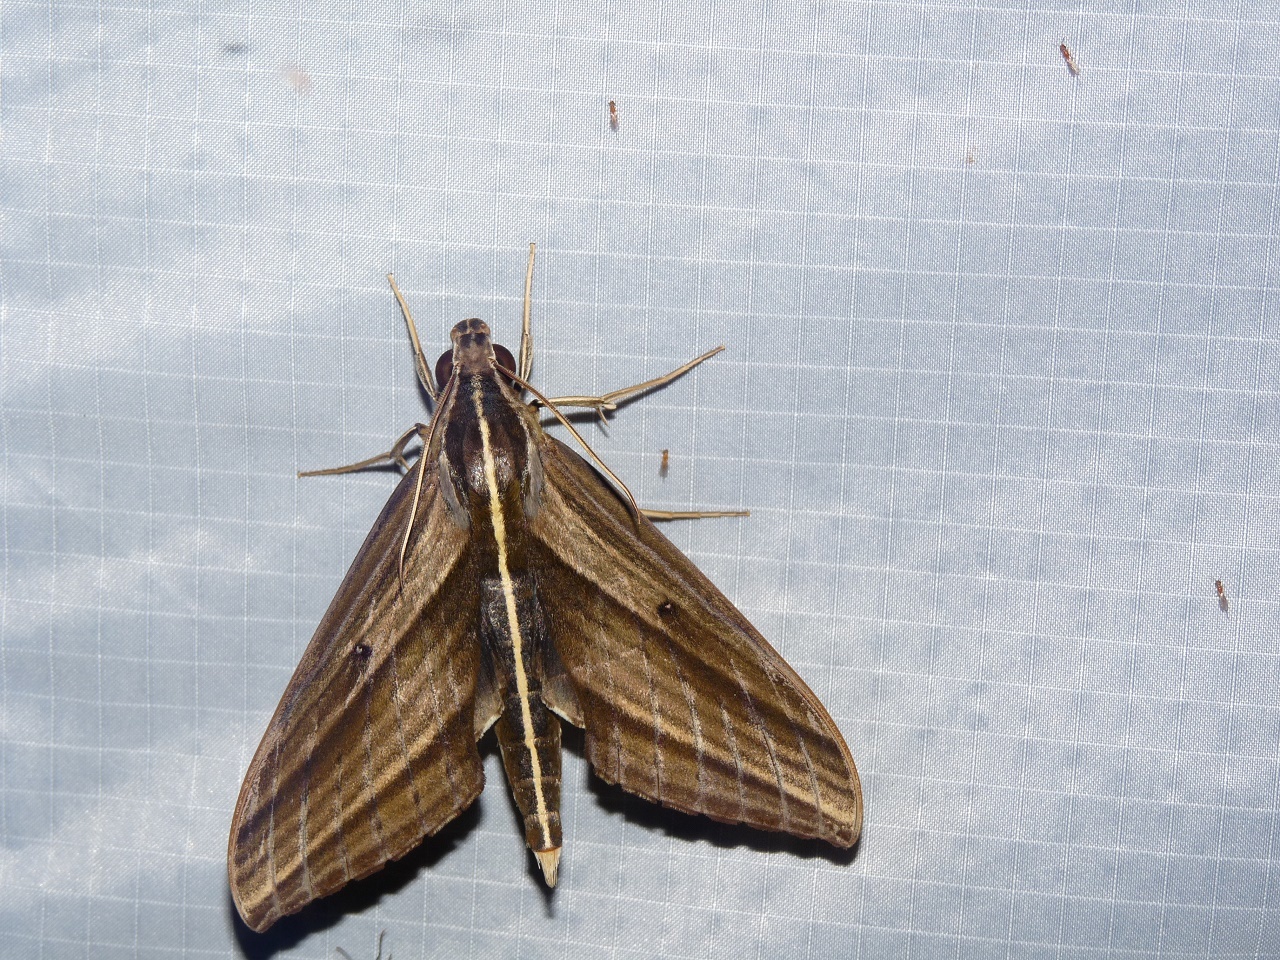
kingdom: Animalia
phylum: Arthropoda
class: Insecta
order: Lepidoptera
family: Sphingidae
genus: Elibia
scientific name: Elibia dolichus
